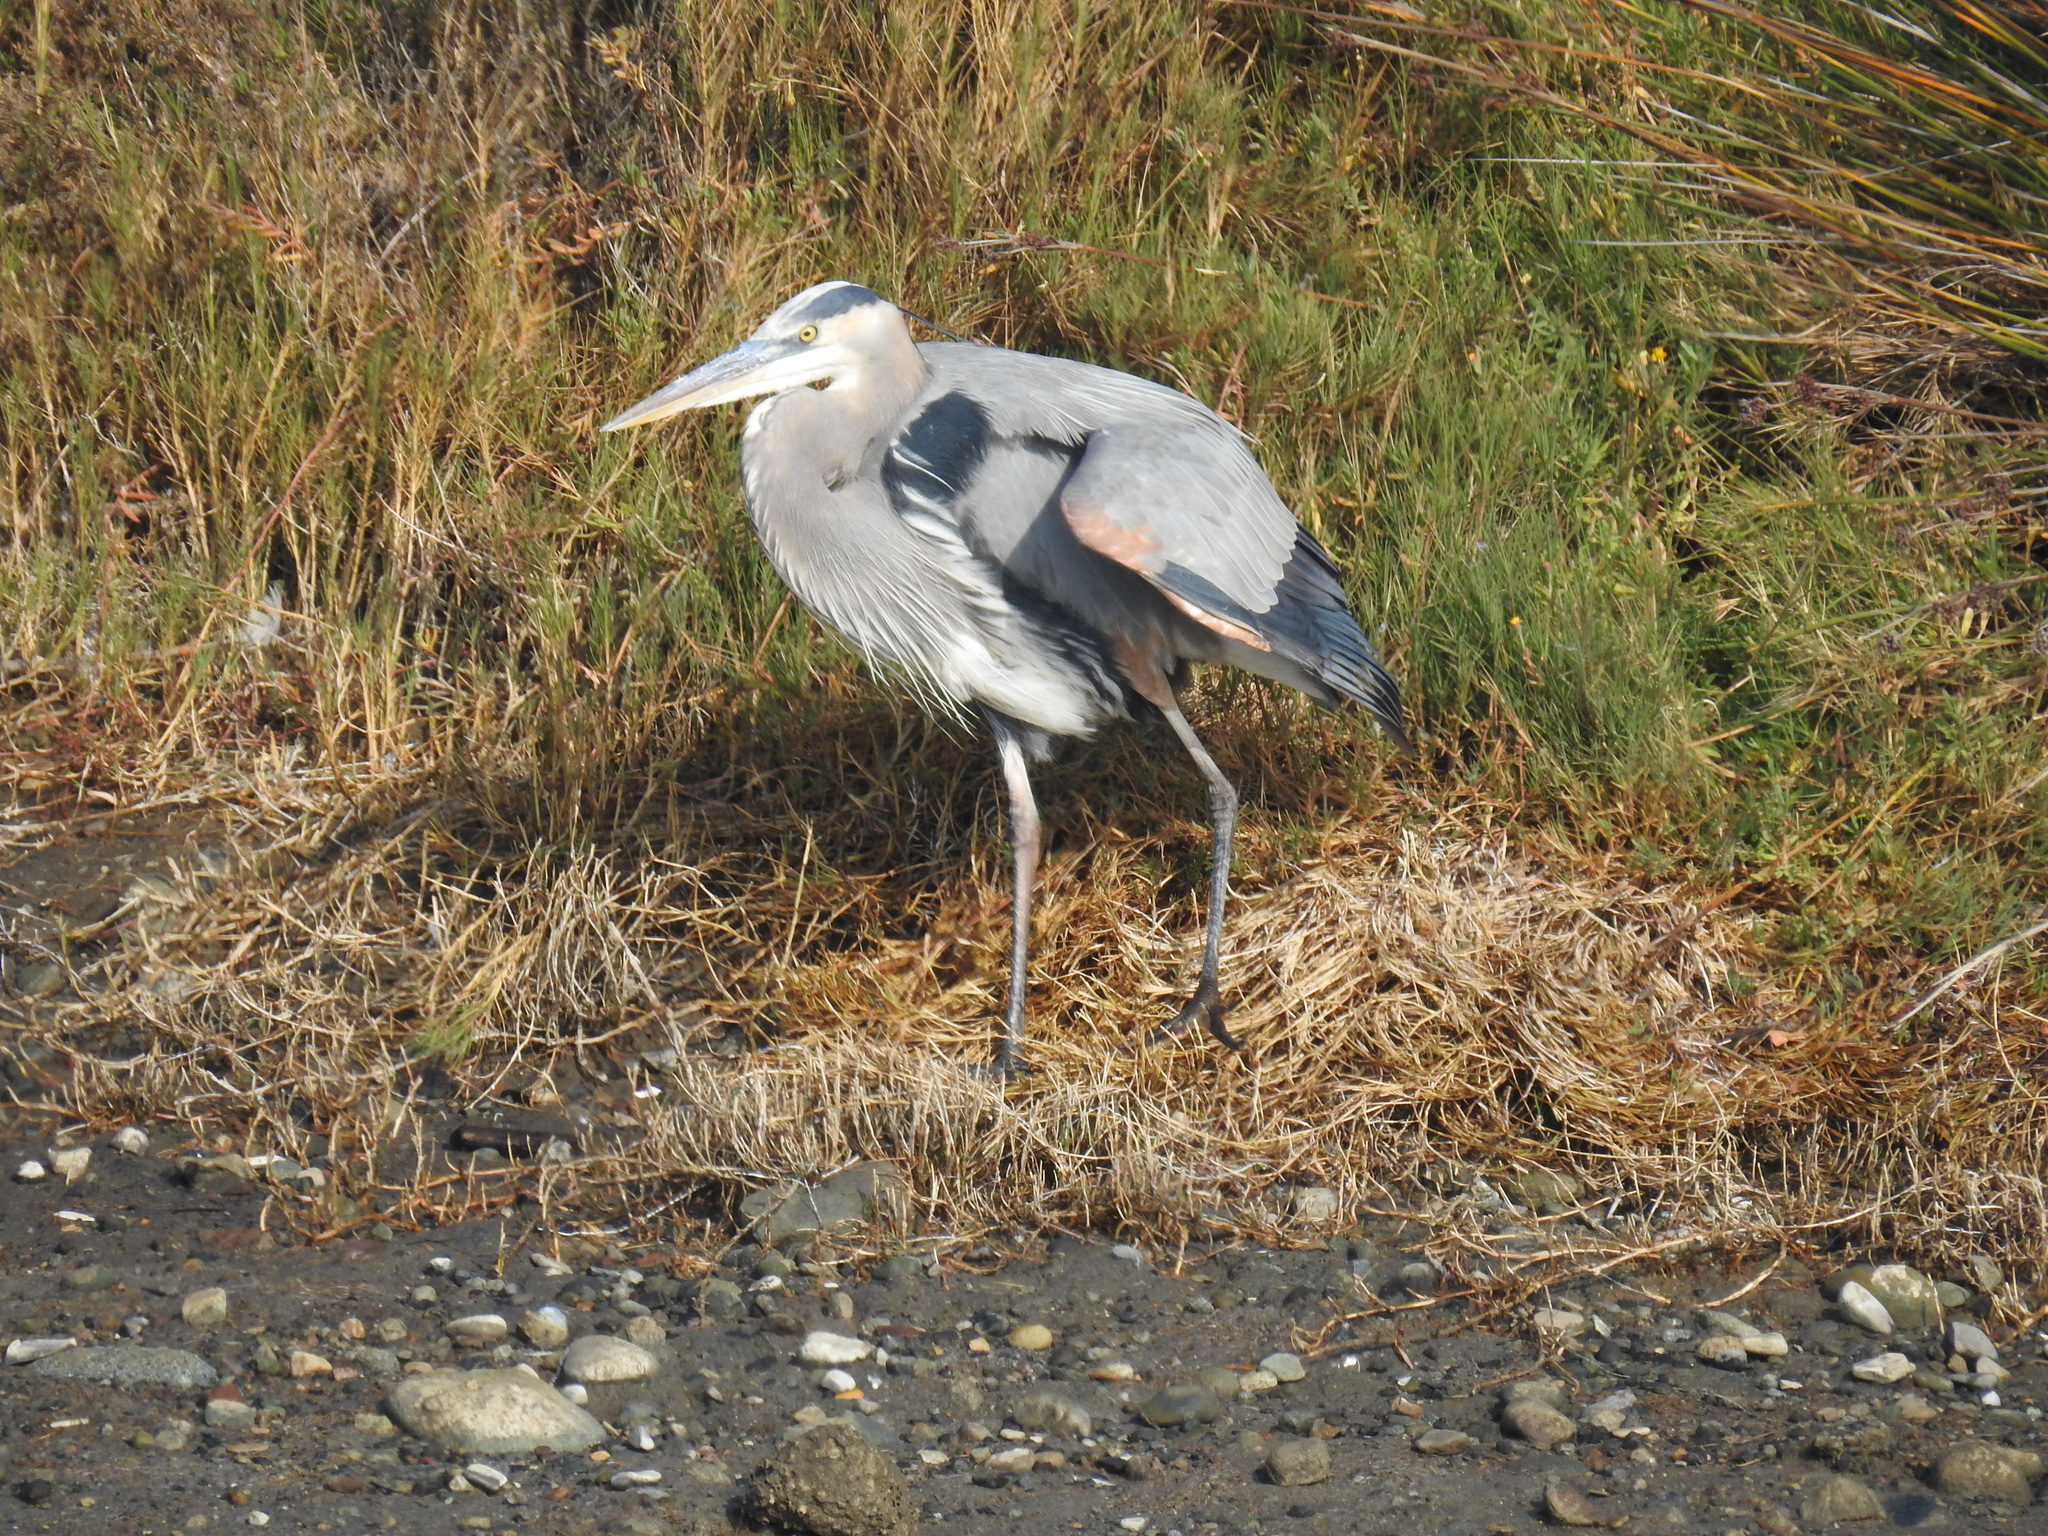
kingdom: Animalia
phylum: Chordata
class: Aves
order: Pelecaniformes
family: Ardeidae
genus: Ardea
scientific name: Ardea herodias
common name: Great blue heron
